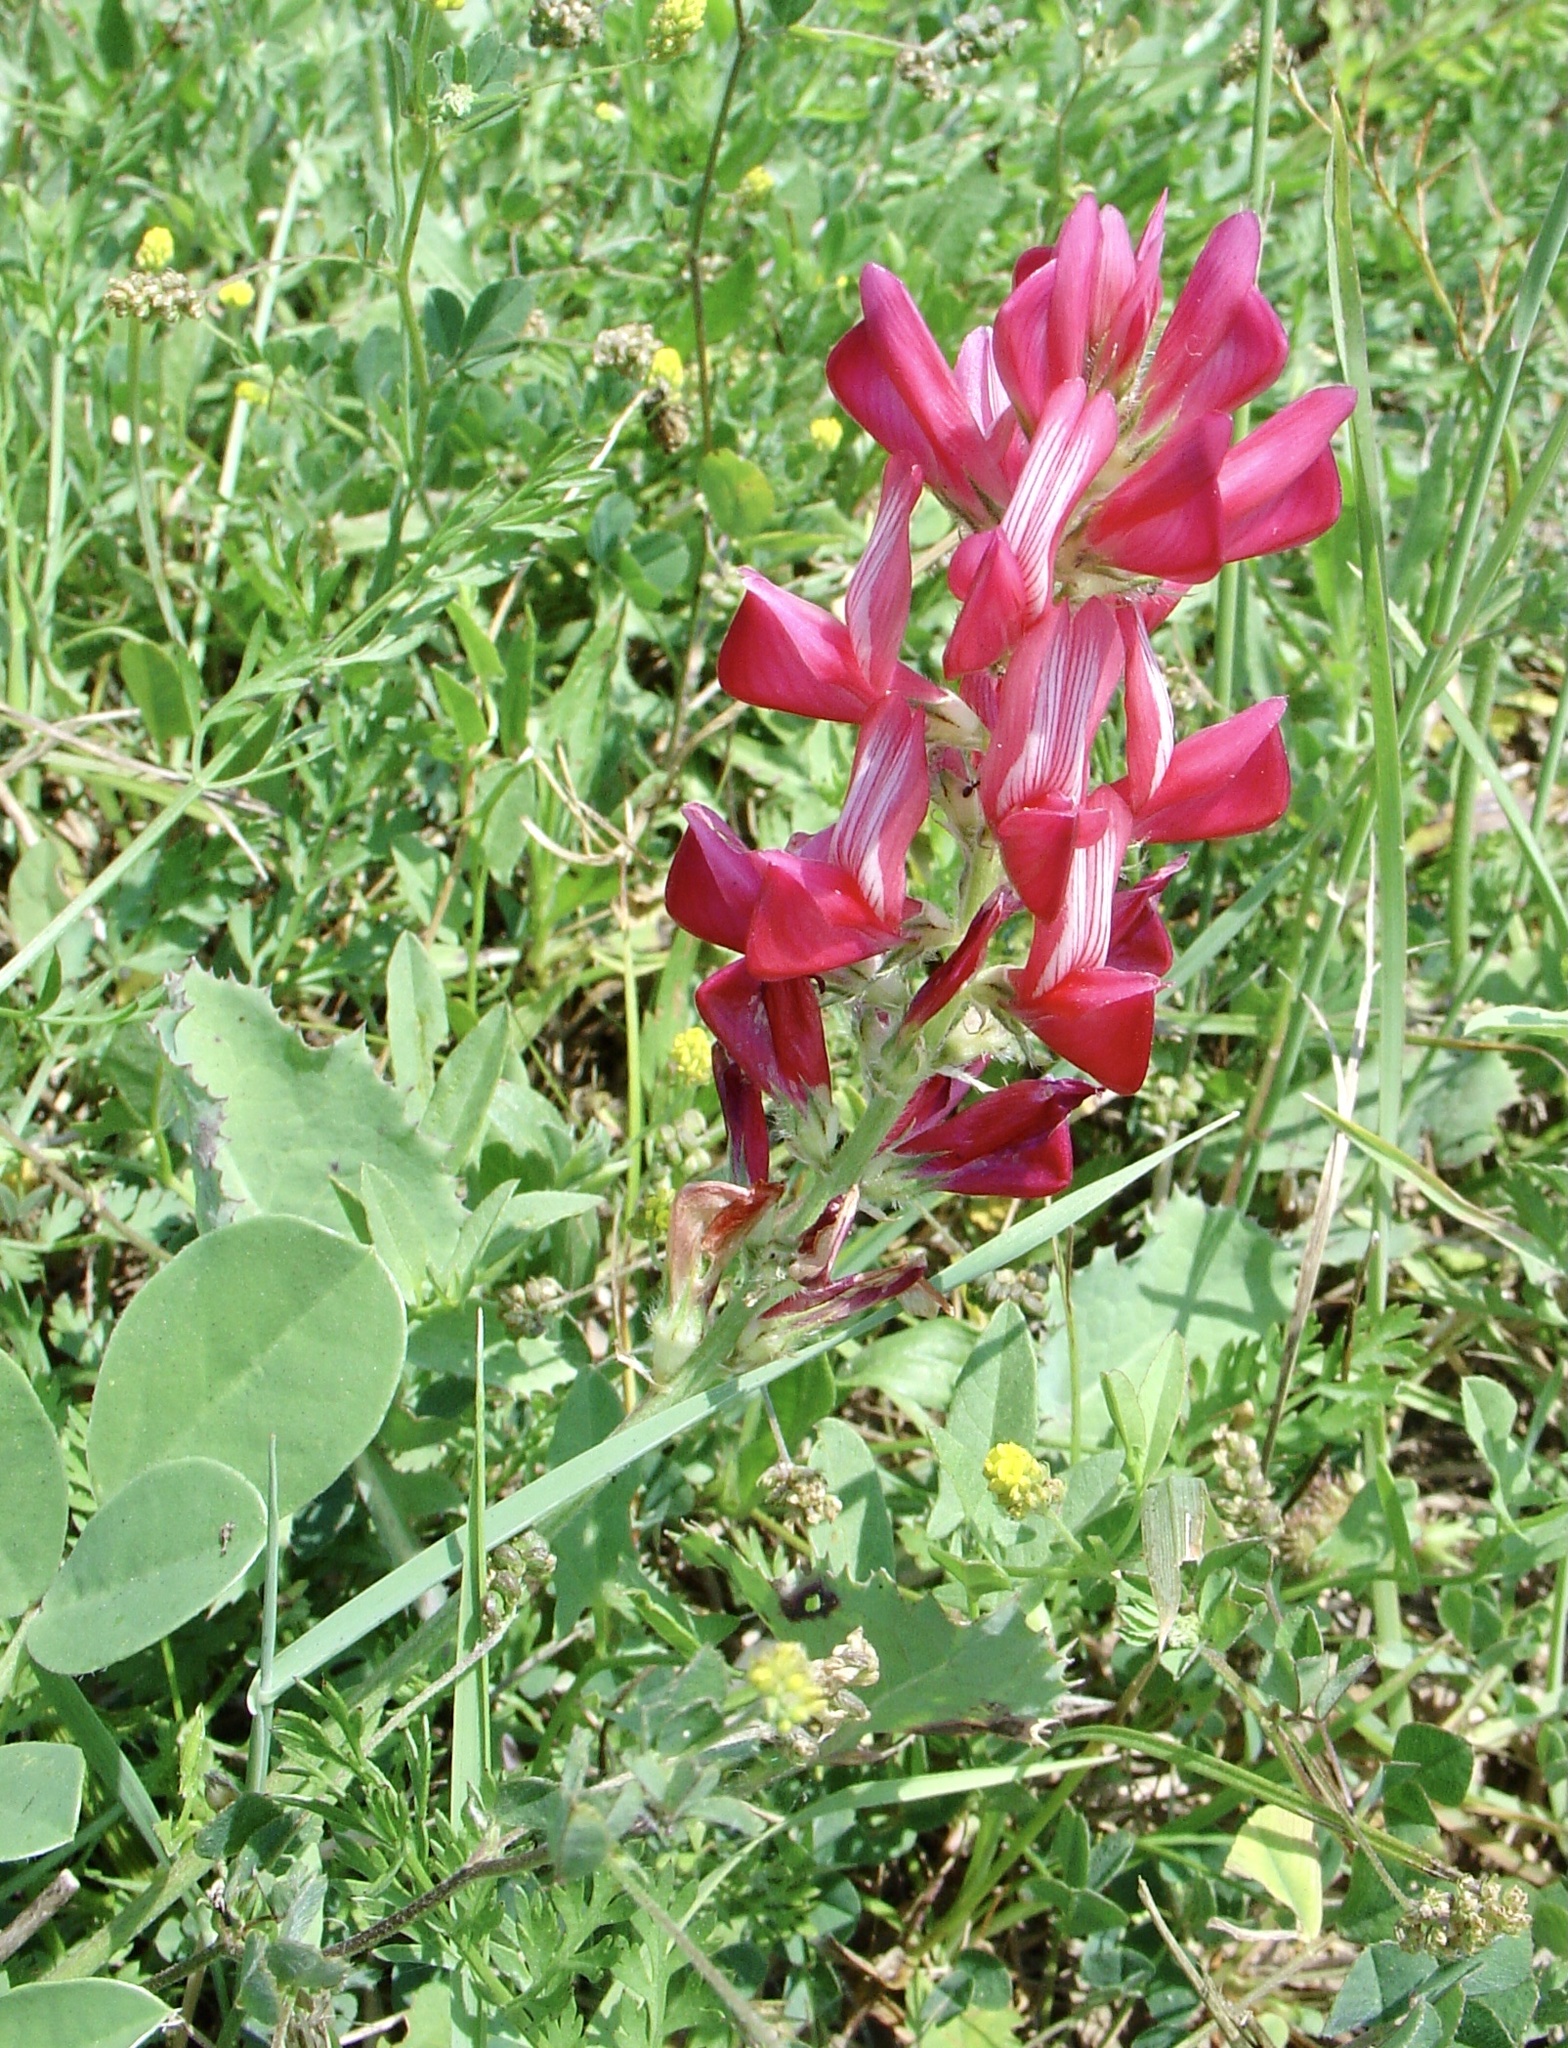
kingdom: Plantae
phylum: Tracheophyta
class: Magnoliopsida
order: Fabales
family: Fabaceae
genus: Sulla
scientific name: Sulla coronaria
